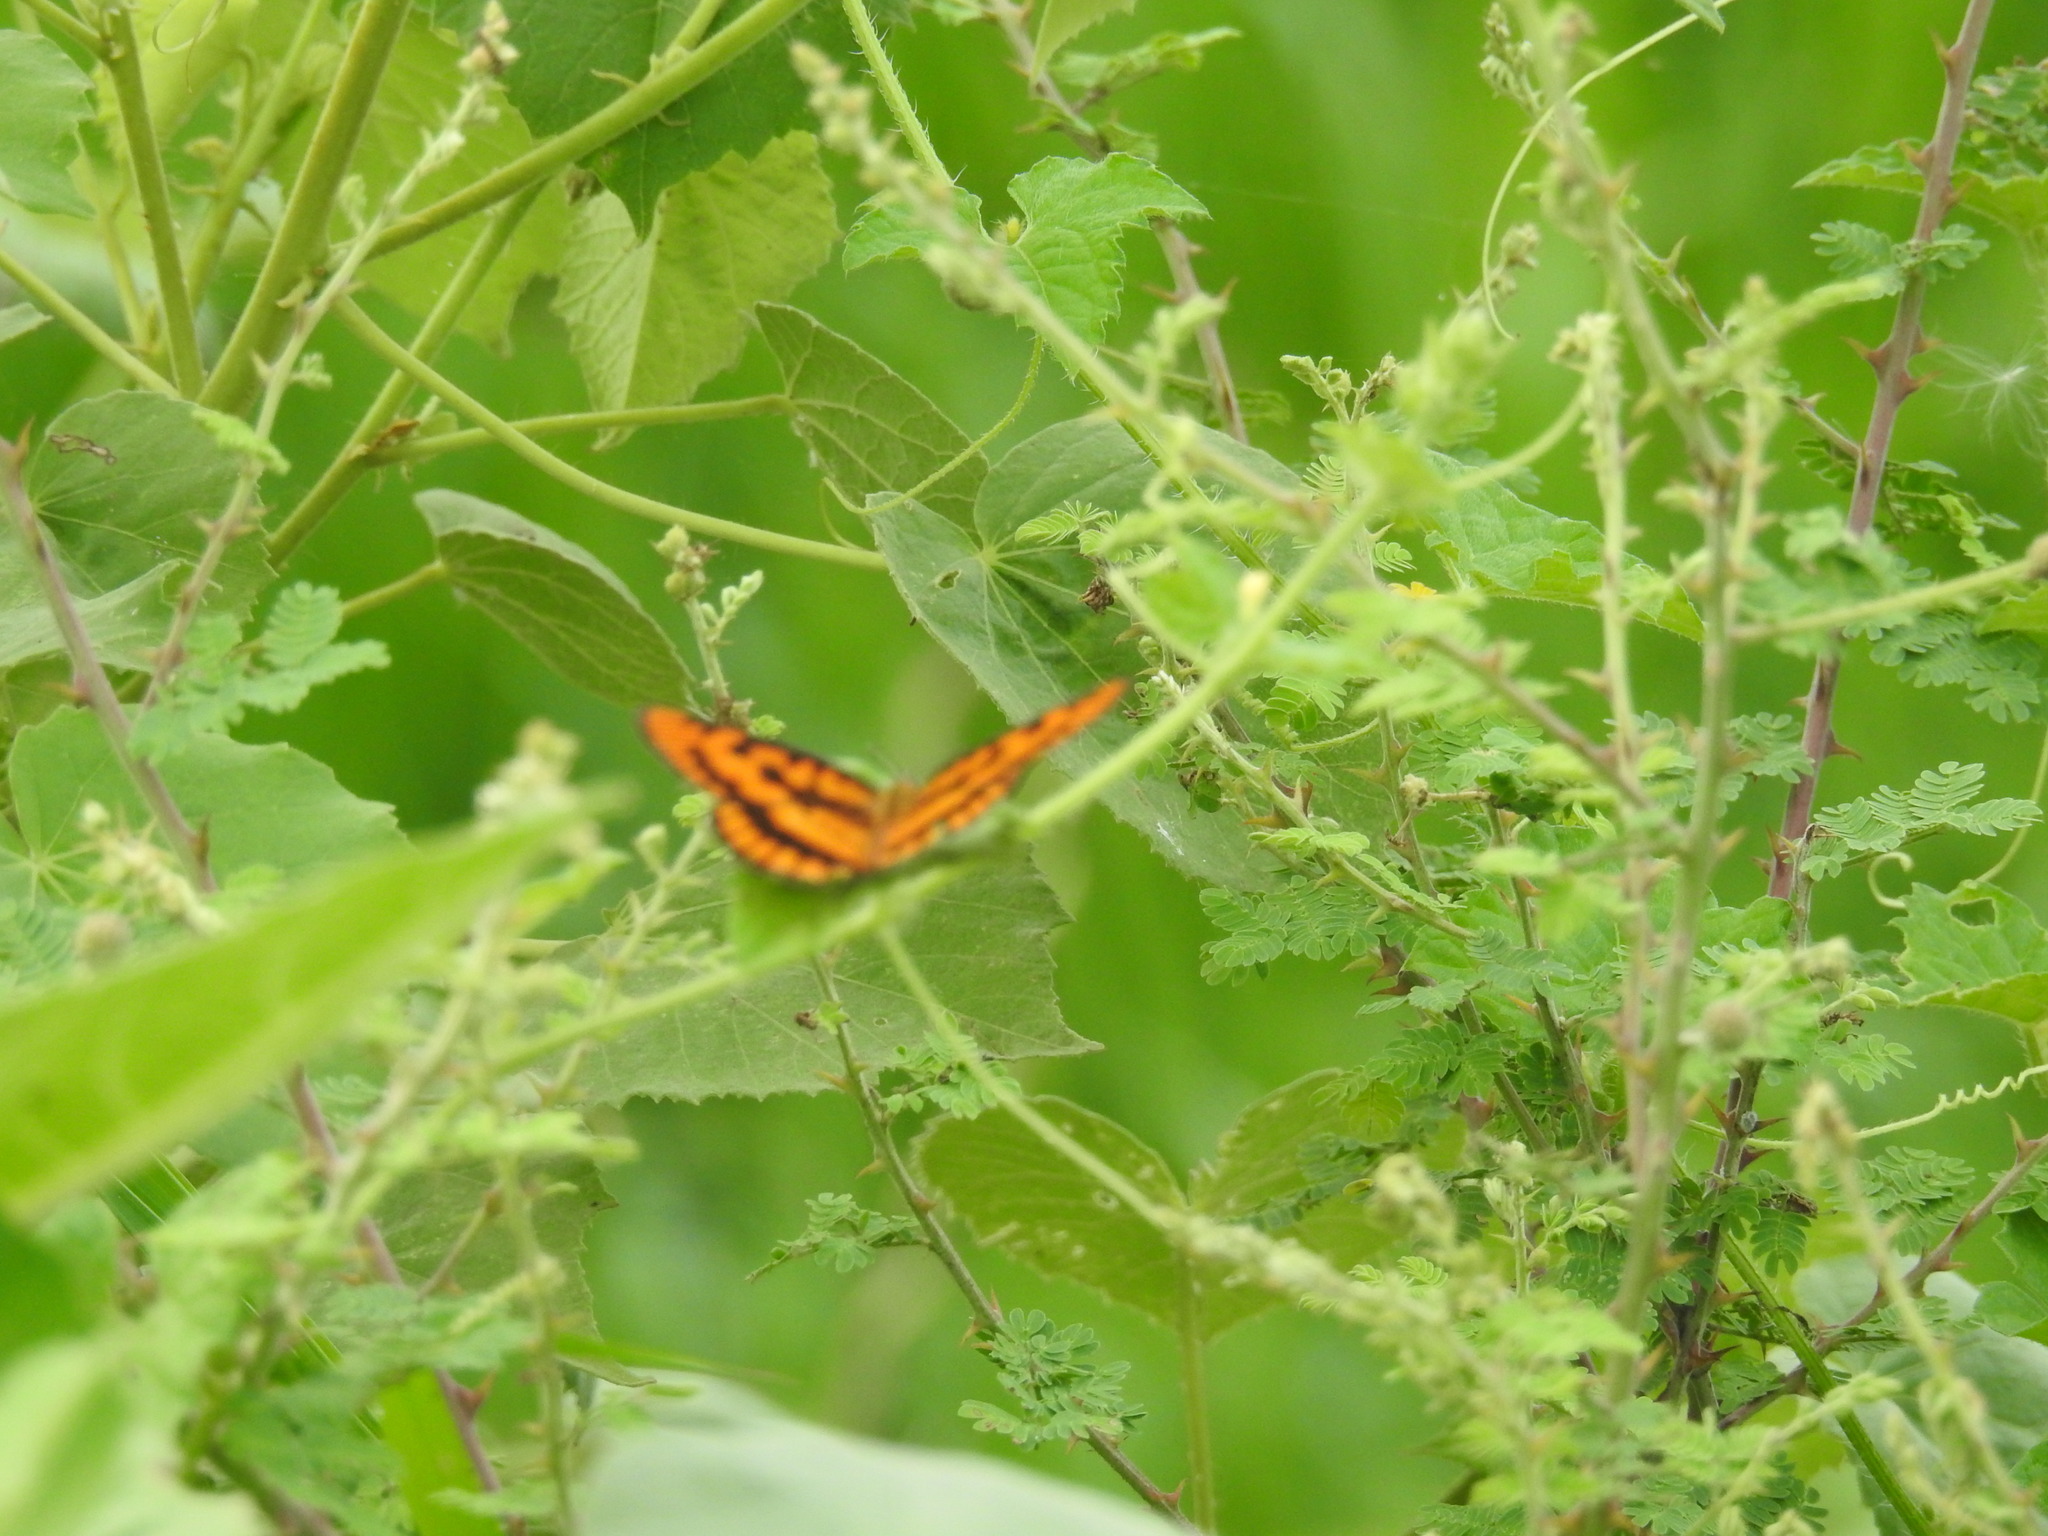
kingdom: Animalia
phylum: Arthropoda
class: Insecta
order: Lepidoptera
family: Nymphalidae
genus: Byblia
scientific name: Byblia ilithyia
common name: Spotted joker
